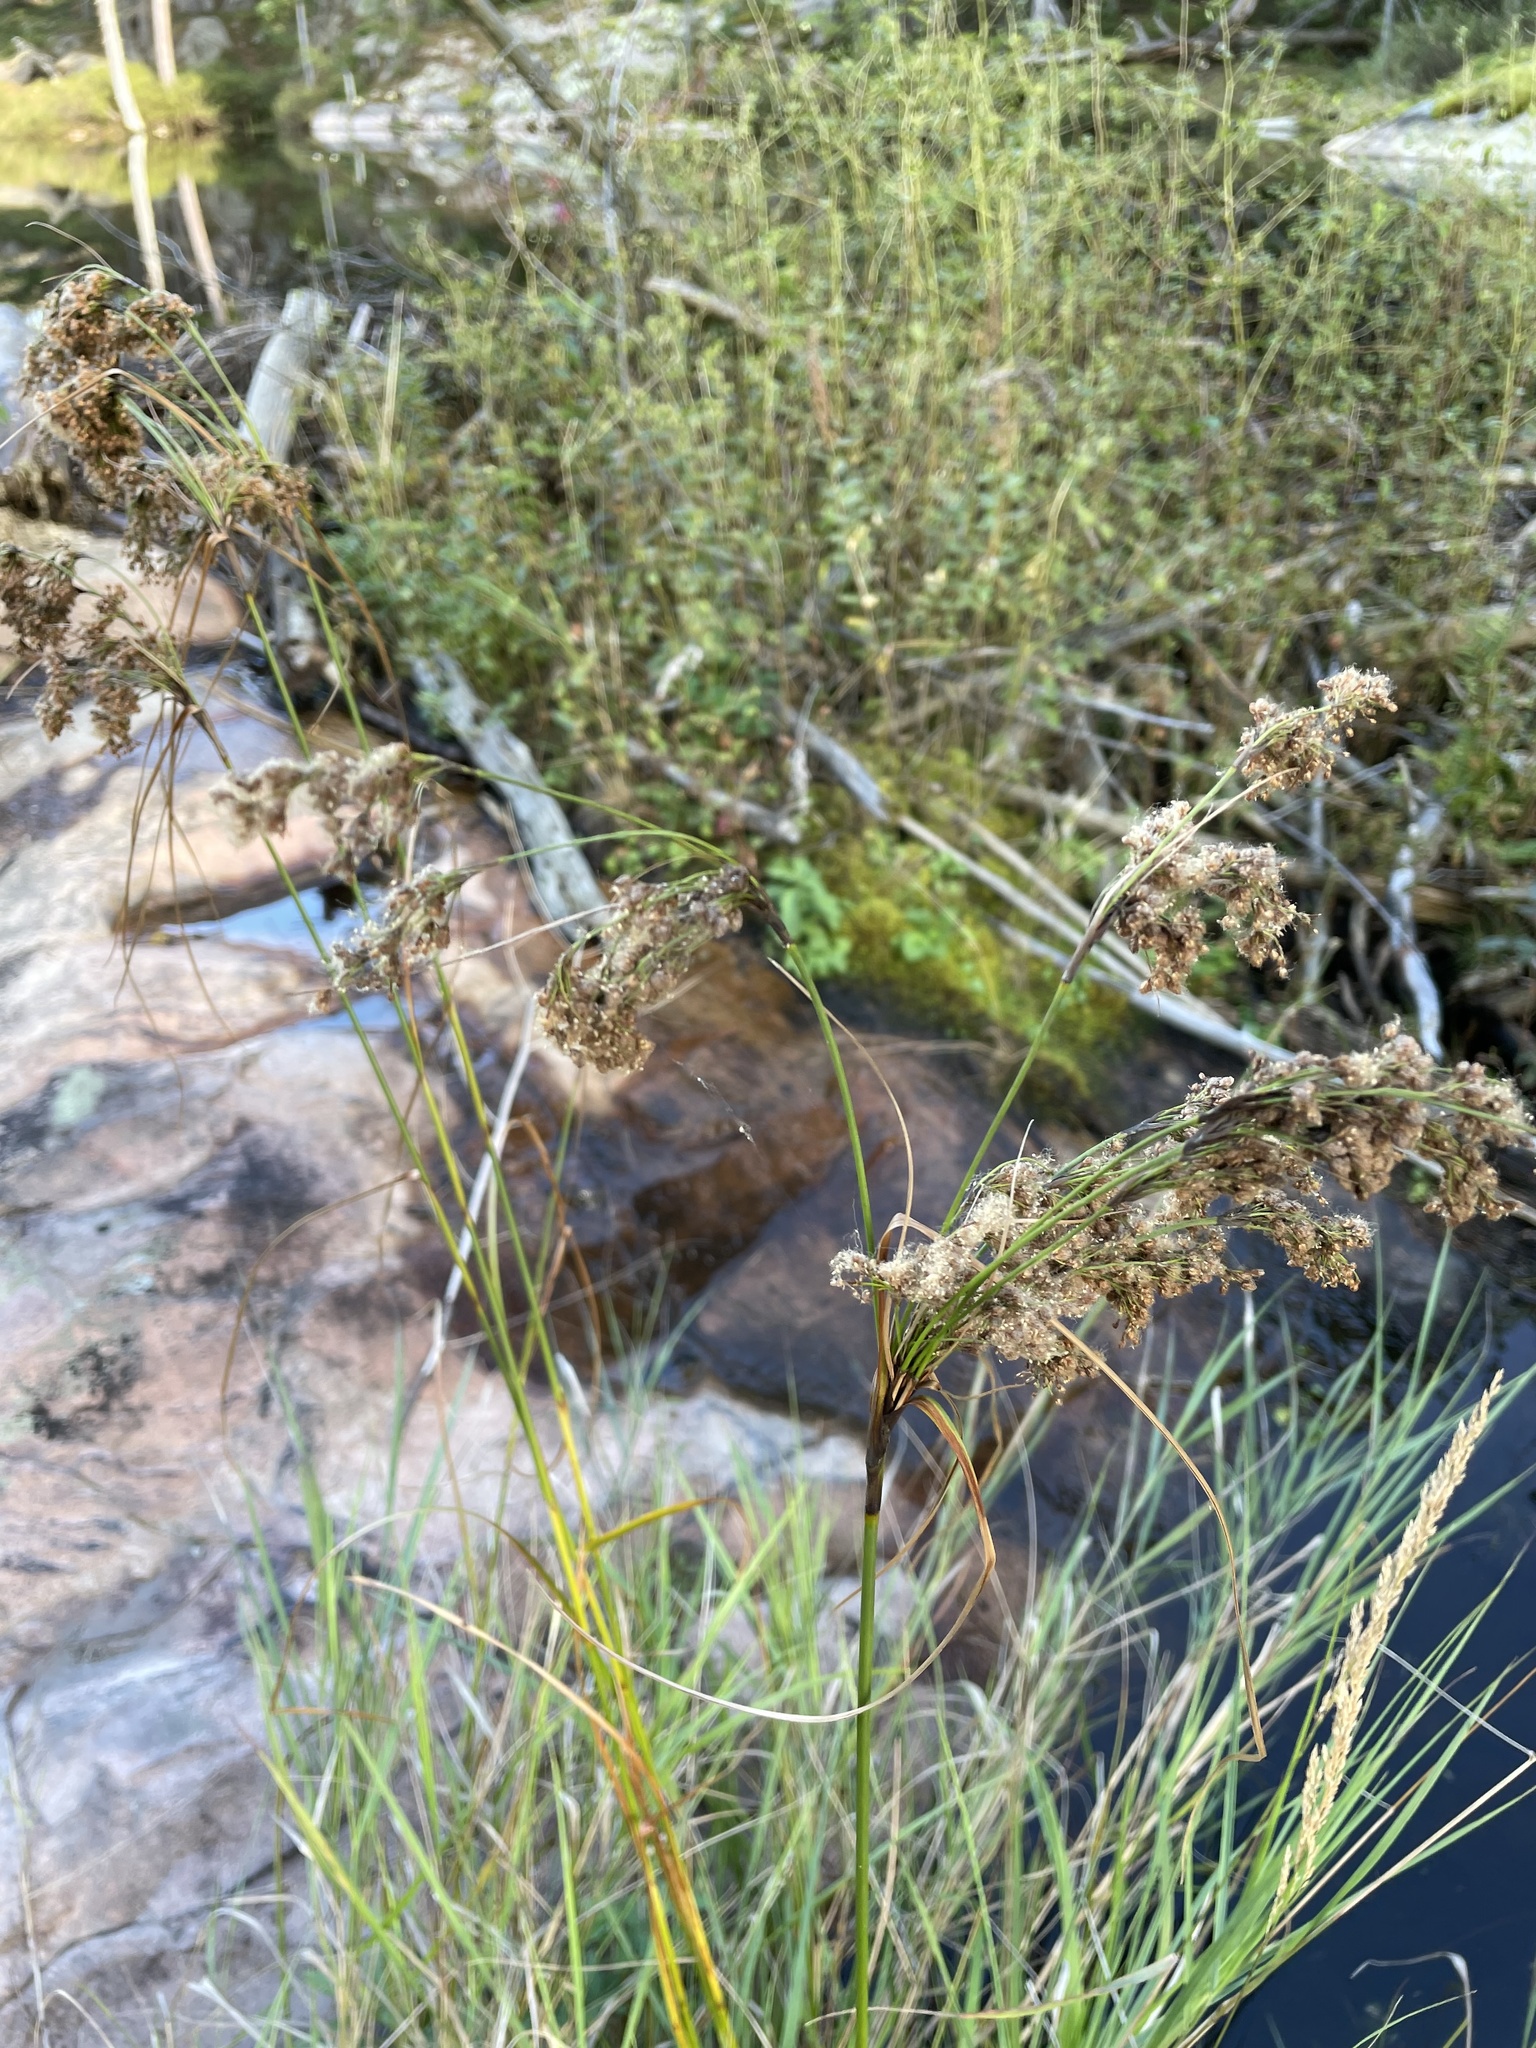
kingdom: Plantae
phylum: Tracheophyta
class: Liliopsida
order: Poales
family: Cyperaceae
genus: Scirpus
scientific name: Scirpus cyperinus
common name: Black-sheathed bulrush
